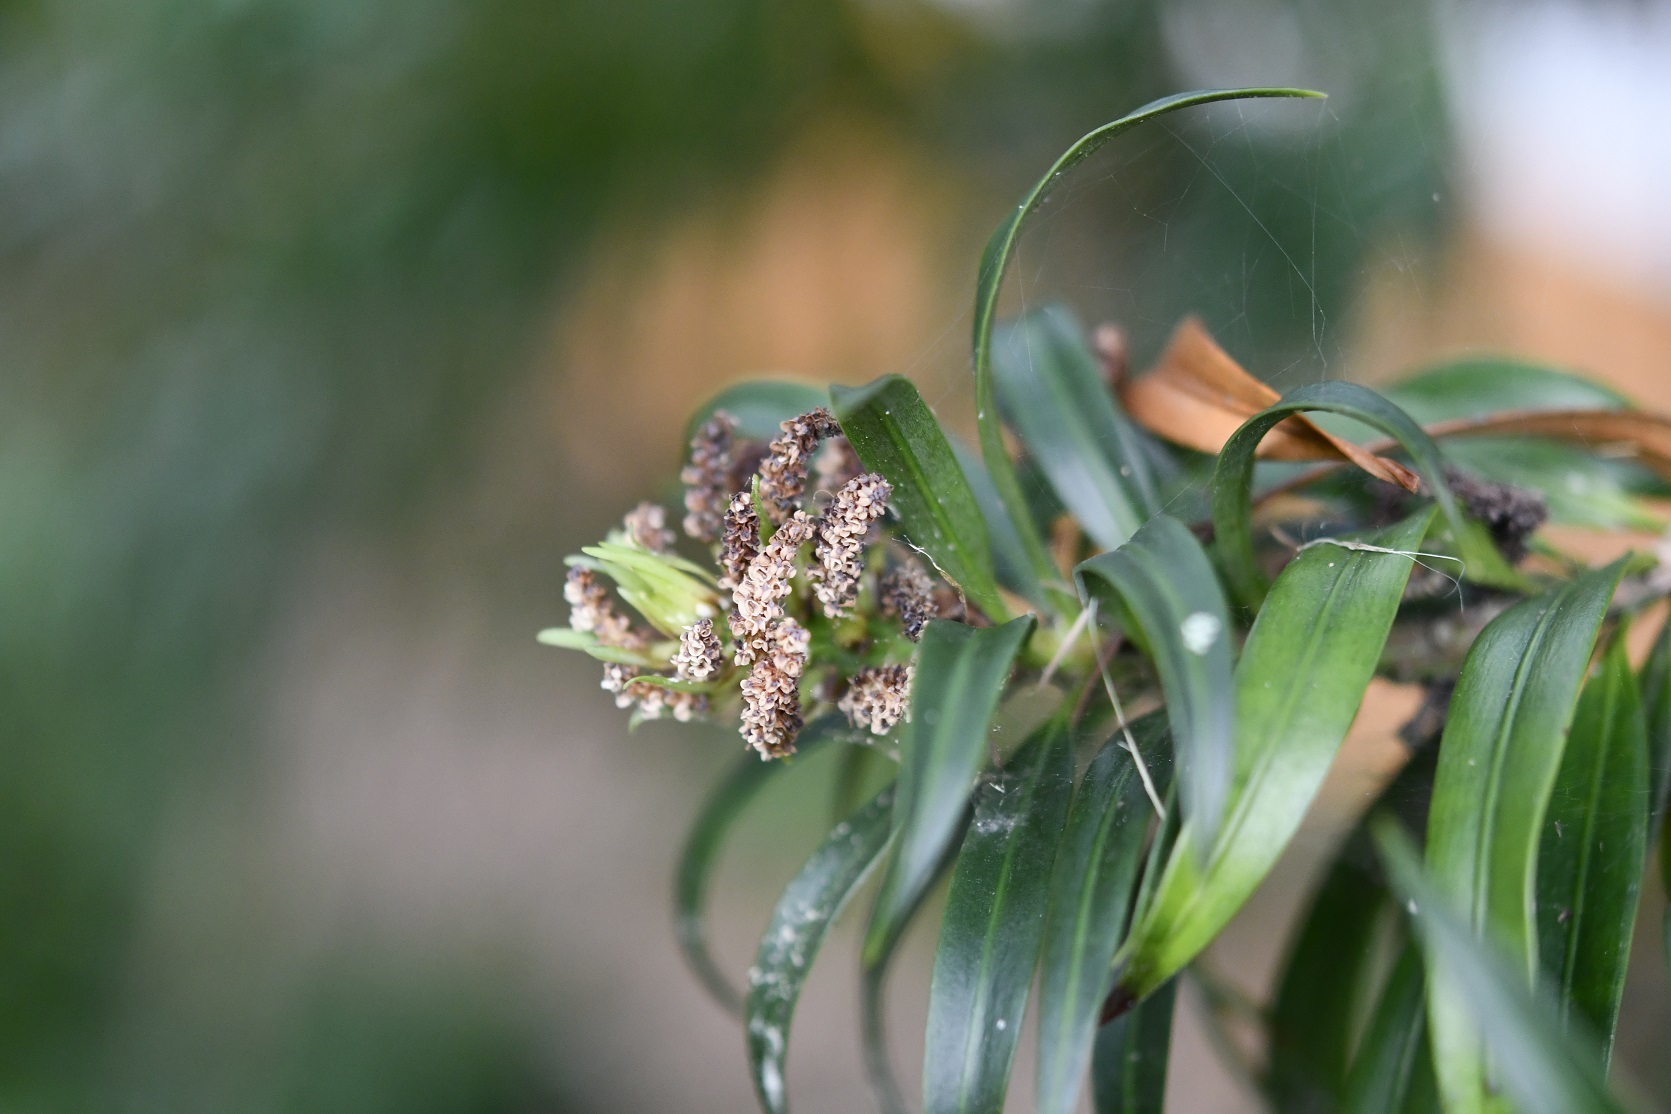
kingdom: Plantae
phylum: Tracheophyta
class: Pinopsida
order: Pinales
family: Podocarpaceae
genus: Podocarpus
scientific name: Podocarpus matudae
